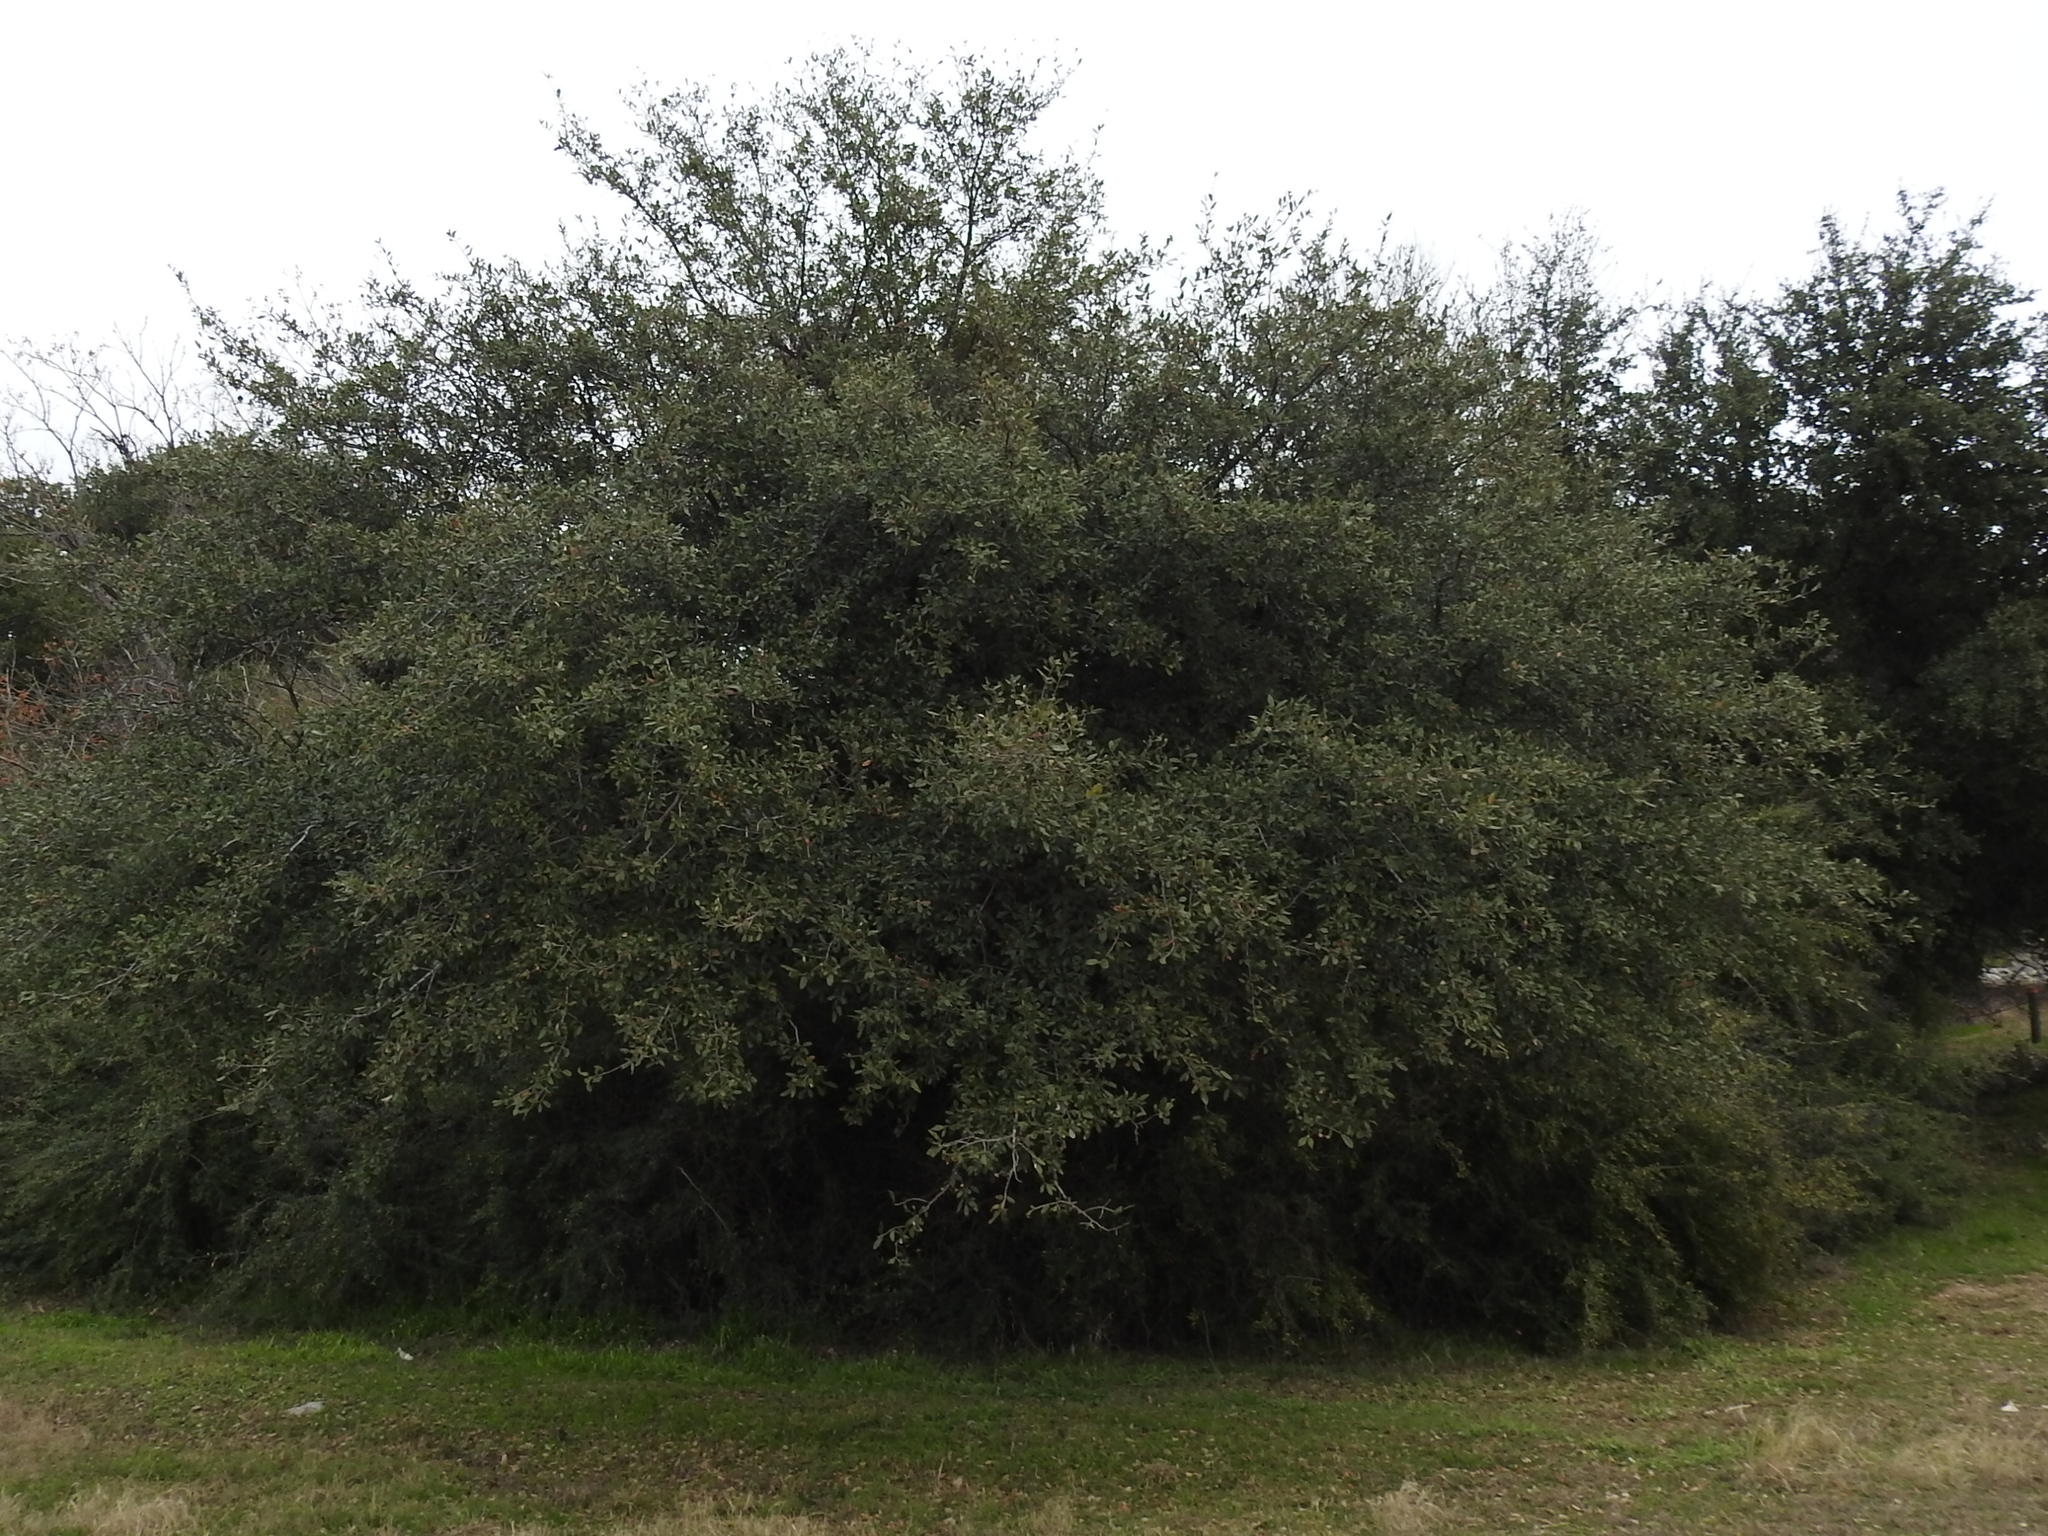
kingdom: Plantae
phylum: Tracheophyta
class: Magnoliopsida
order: Fagales
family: Fagaceae
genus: Quercus
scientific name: Quercus virginiana
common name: Southern live oak
